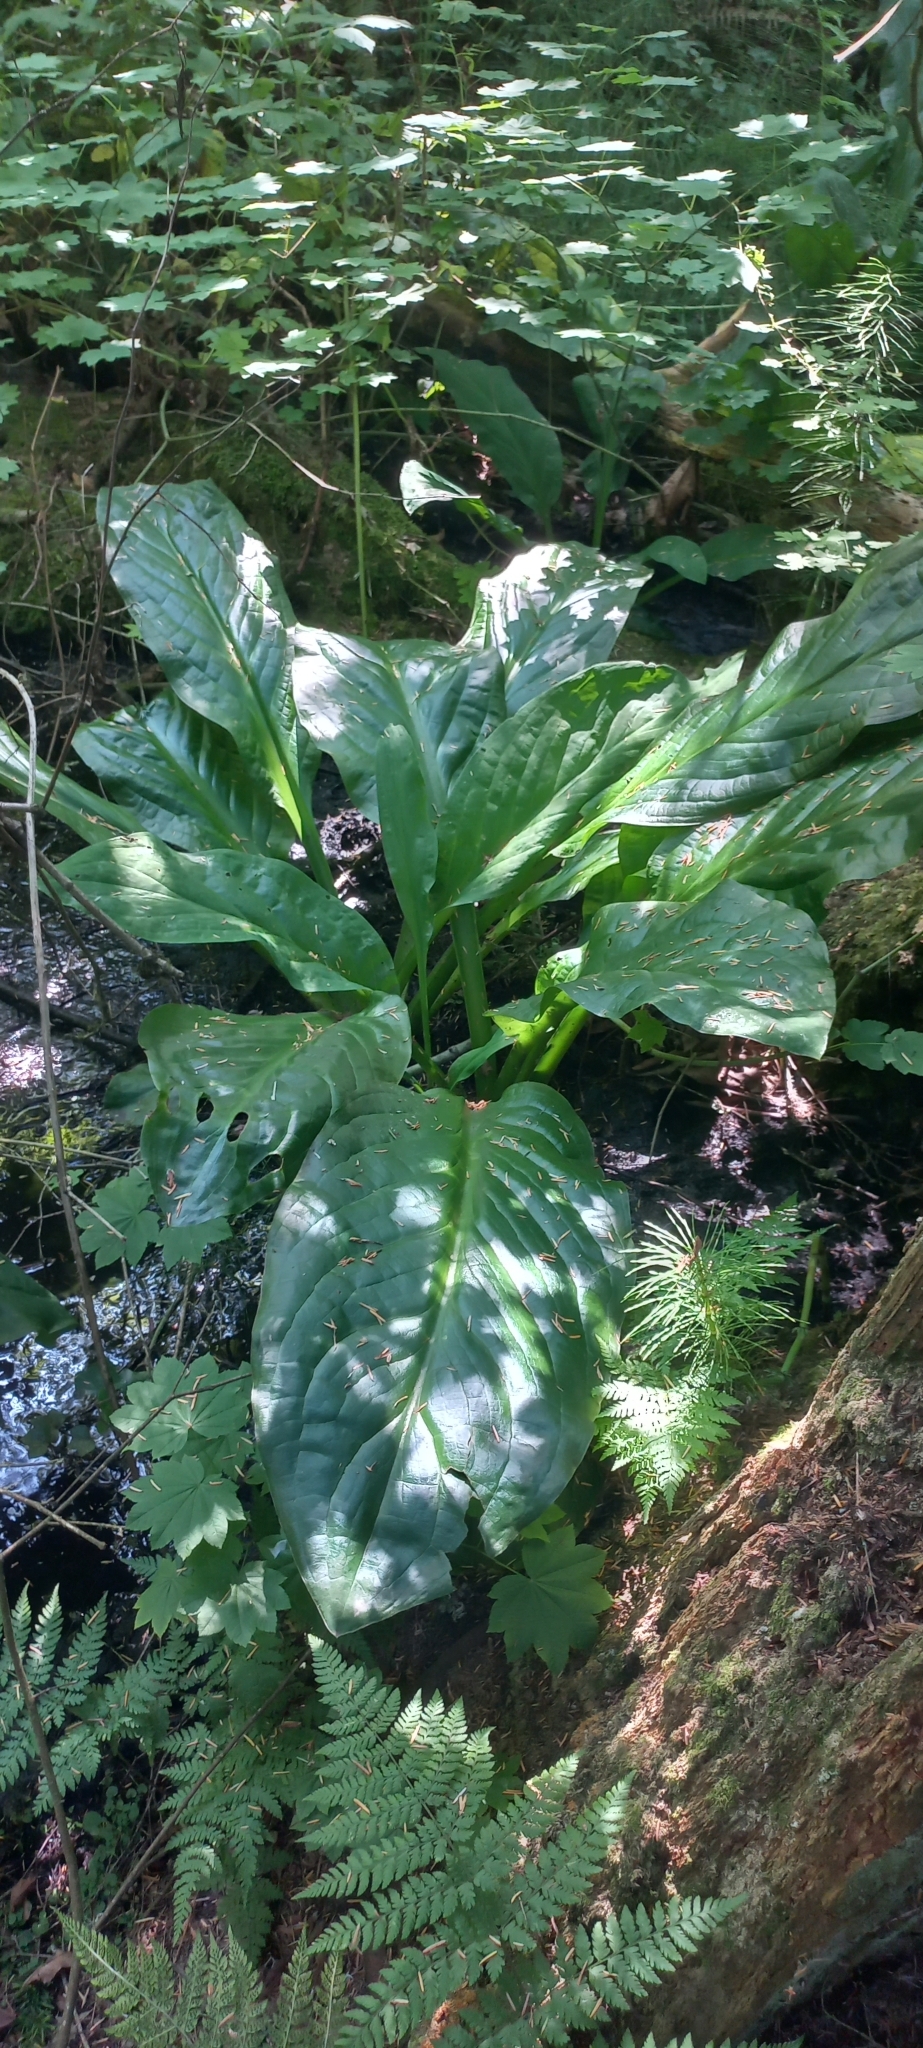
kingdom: Plantae
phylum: Tracheophyta
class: Liliopsida
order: Alismatales
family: Araceae
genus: Lysichiton
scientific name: Lysichiton americanus
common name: American skunk cabbage
